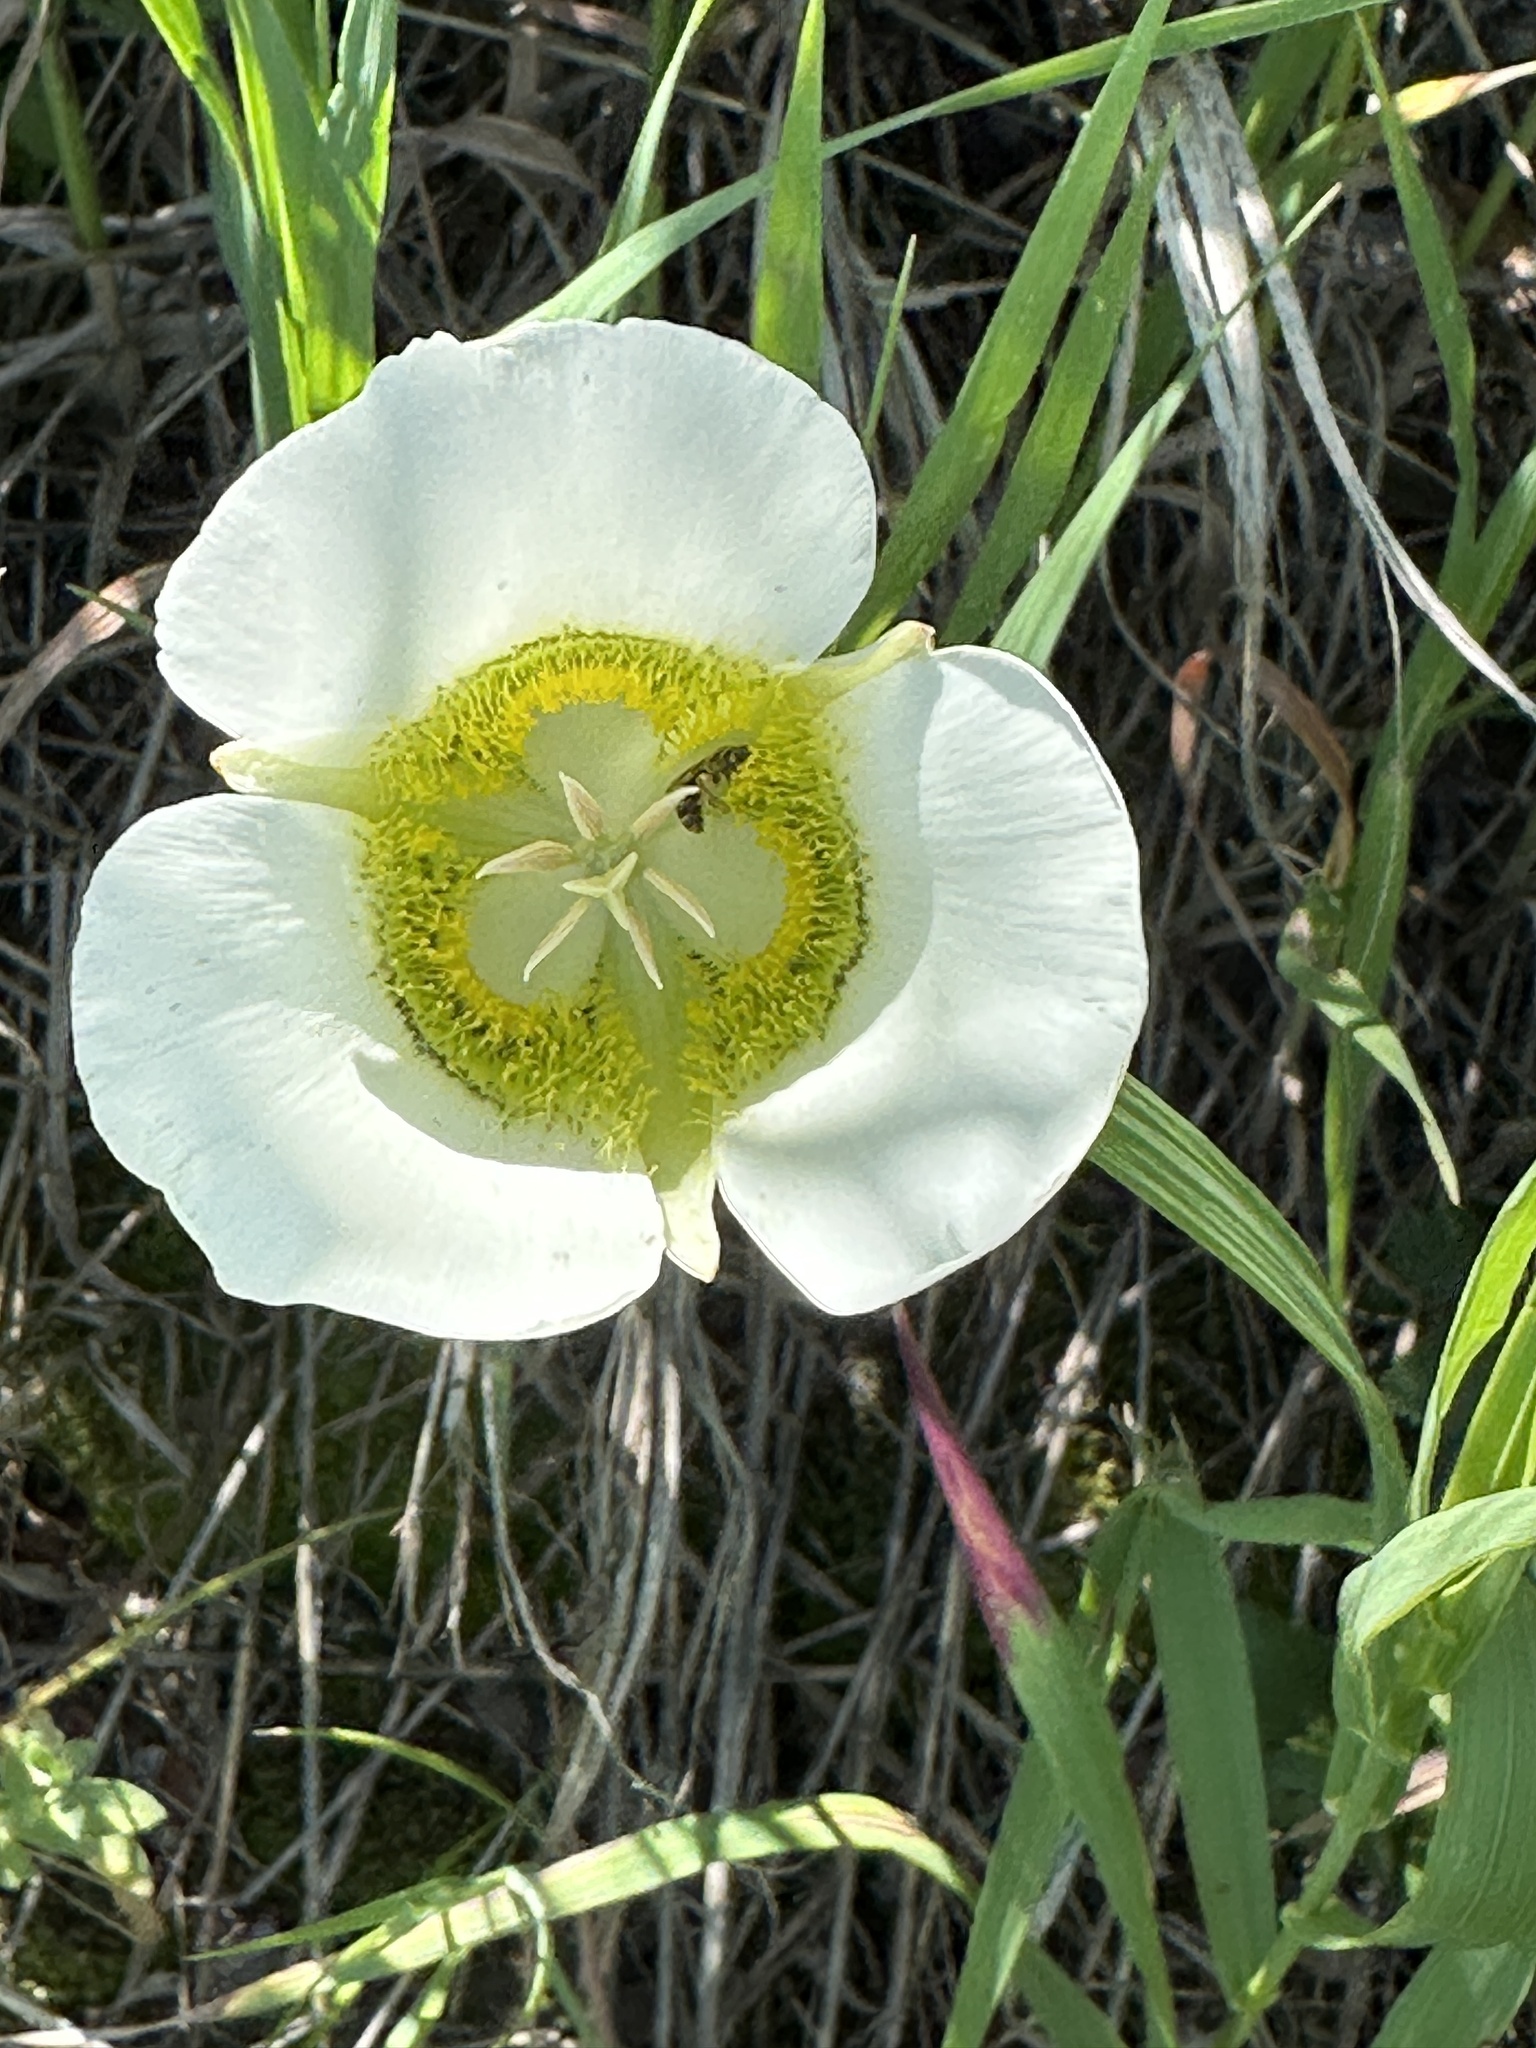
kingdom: Plantae
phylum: Tracheophyta
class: Liliopsida
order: Liliales
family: Liliaceae
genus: Calochortus
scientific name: Calochortus gunnisonii
